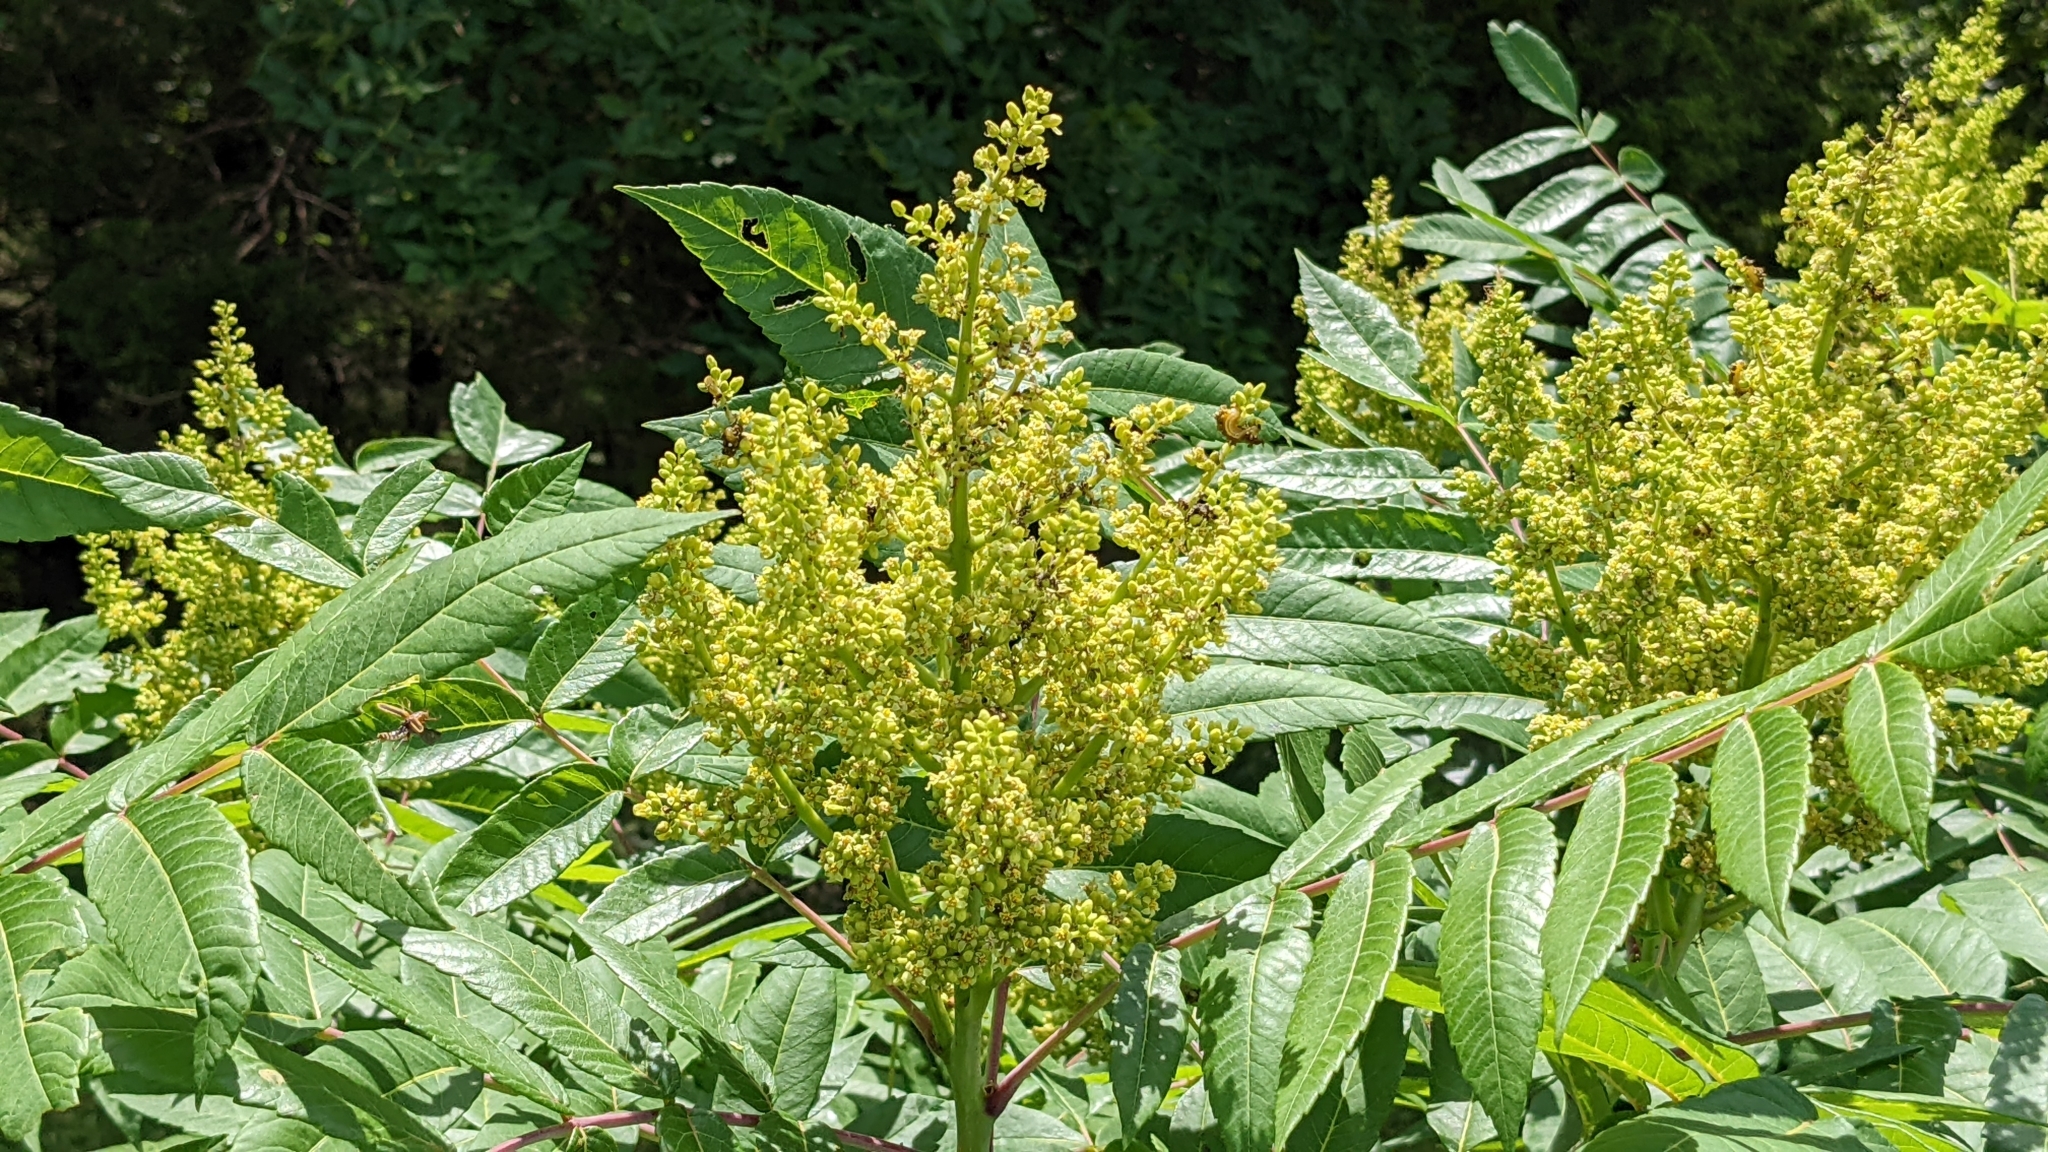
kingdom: Plantae
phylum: Tracheophyta
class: Magnoliopsida
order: Sapindales
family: Anacardiaceae
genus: Rhus
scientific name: Rhus glabra
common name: Scarlet sumac
